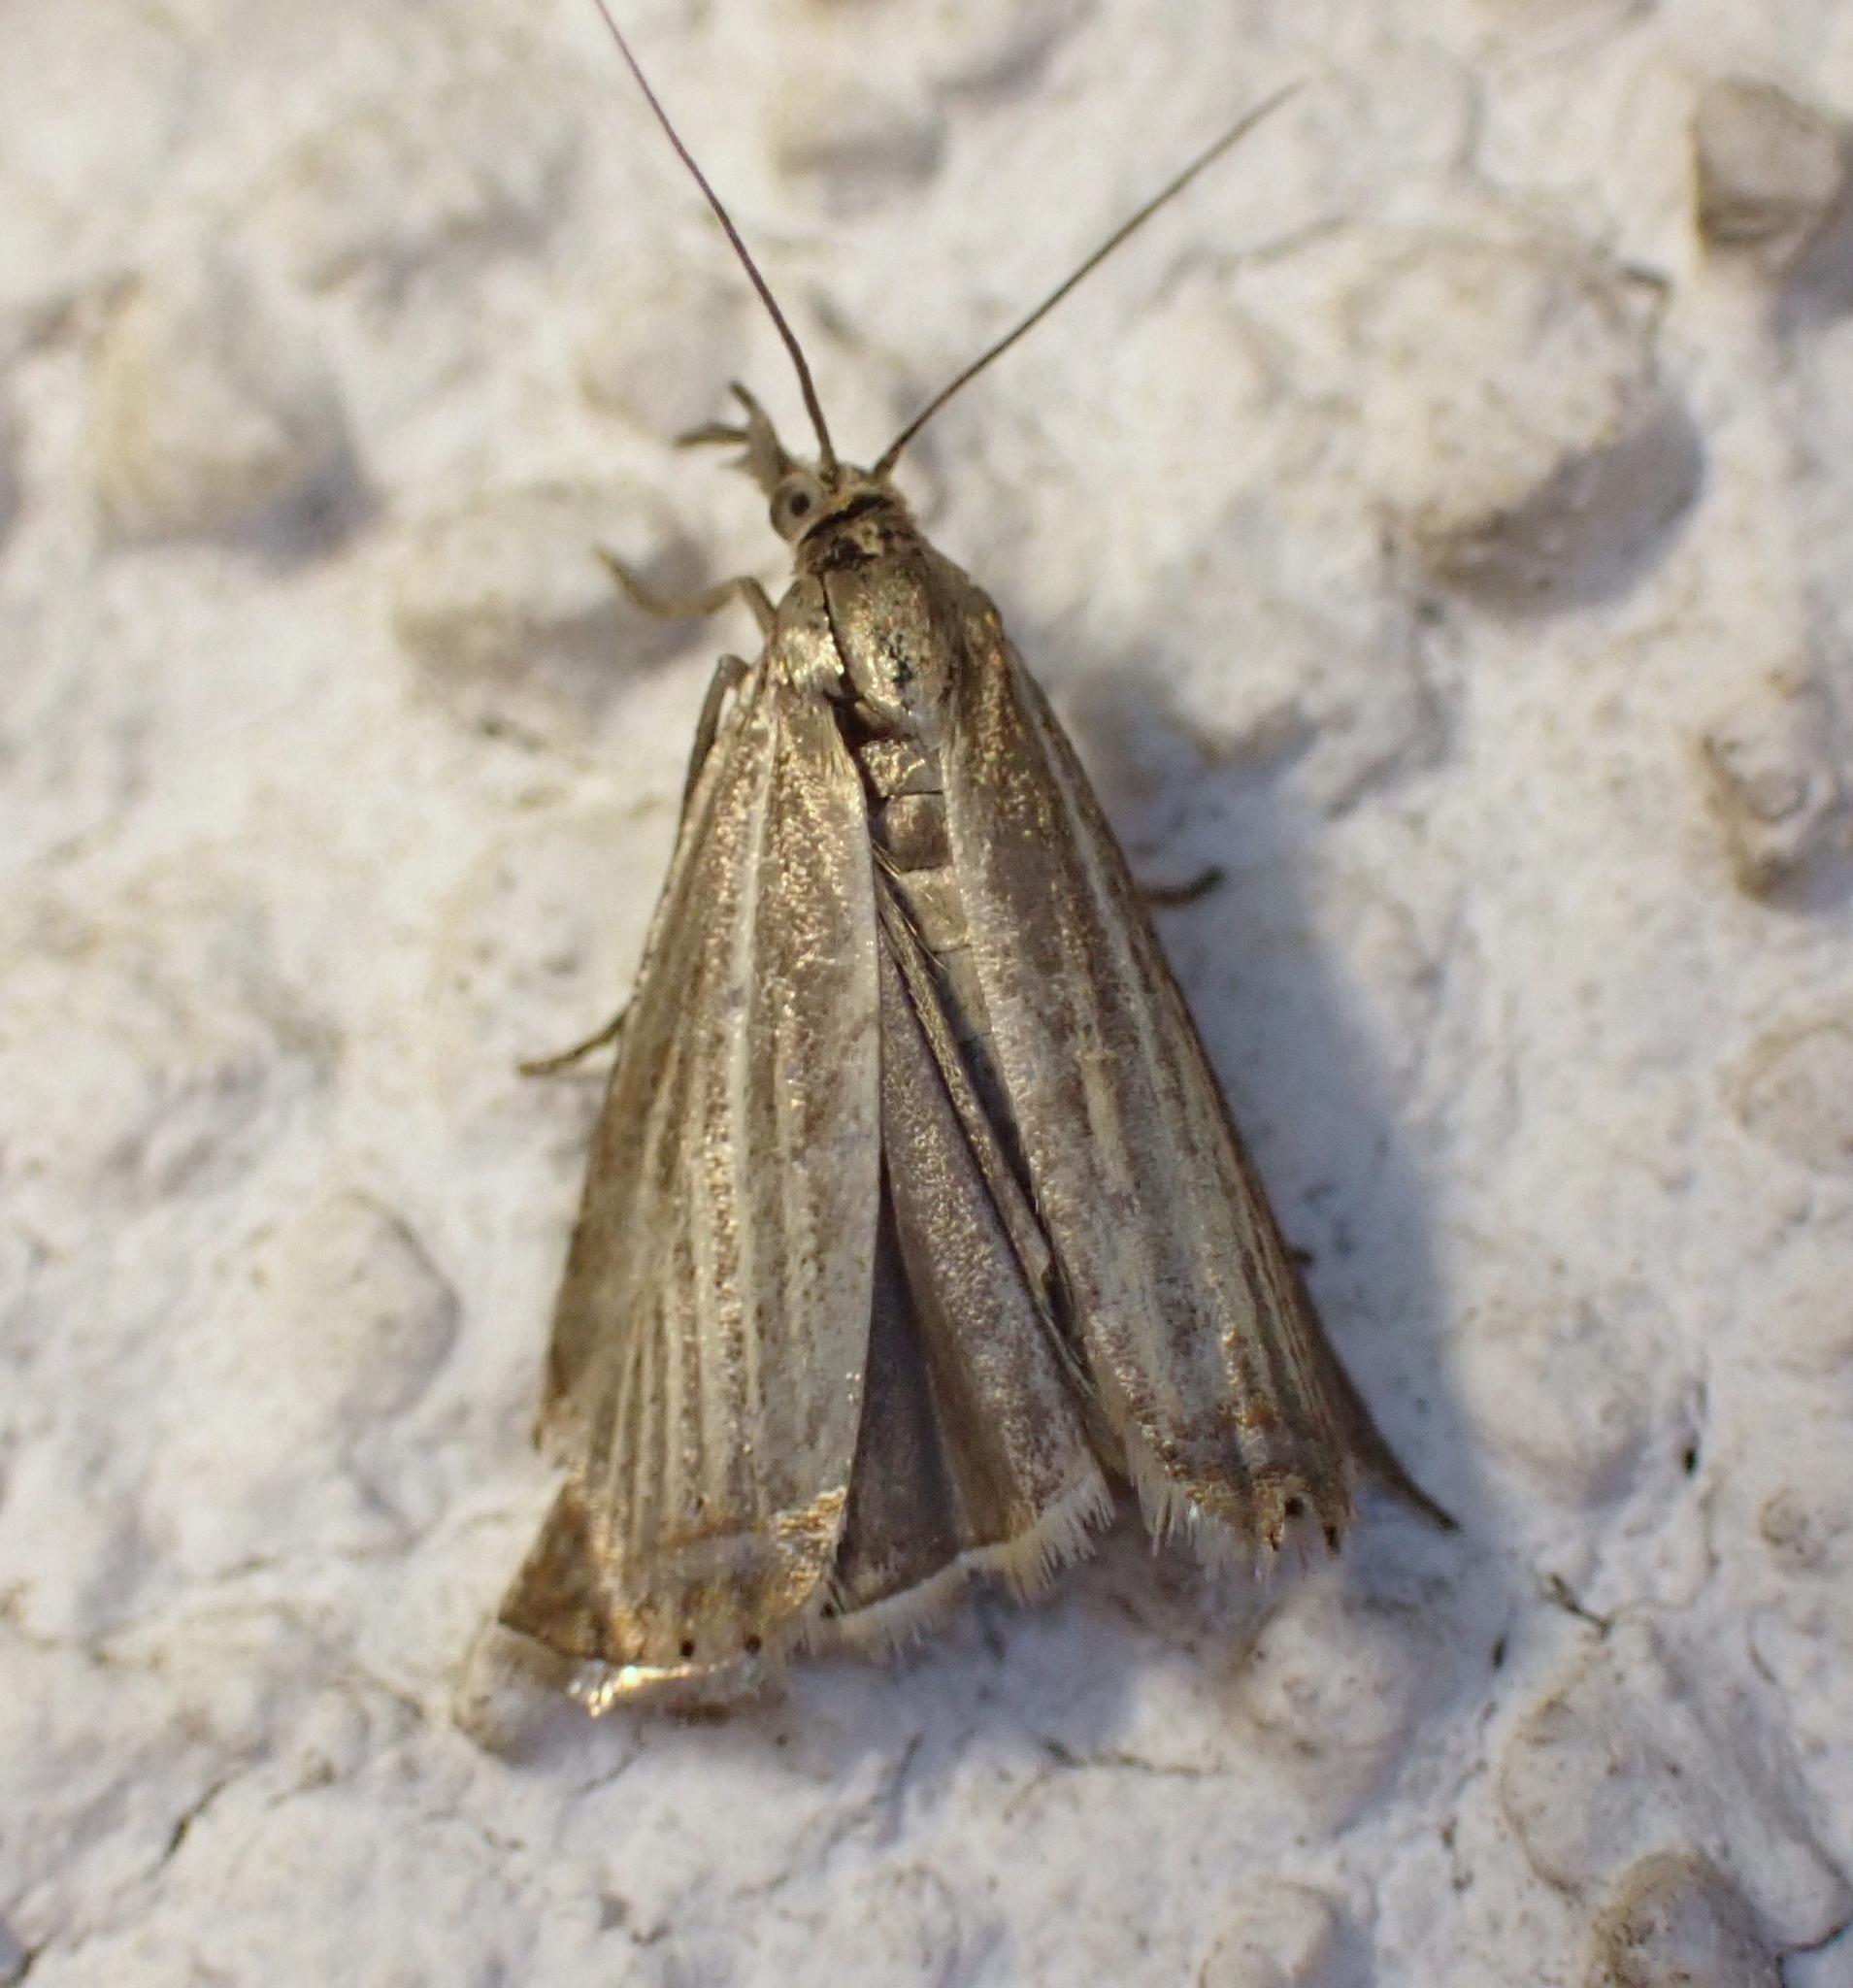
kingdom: Animalia
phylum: Arthropoda
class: Insecta
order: Lepidoptera
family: Crambidae
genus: Chrysoteuchia
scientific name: Chrysoteuchia culmella
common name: Garden grass-veneer
